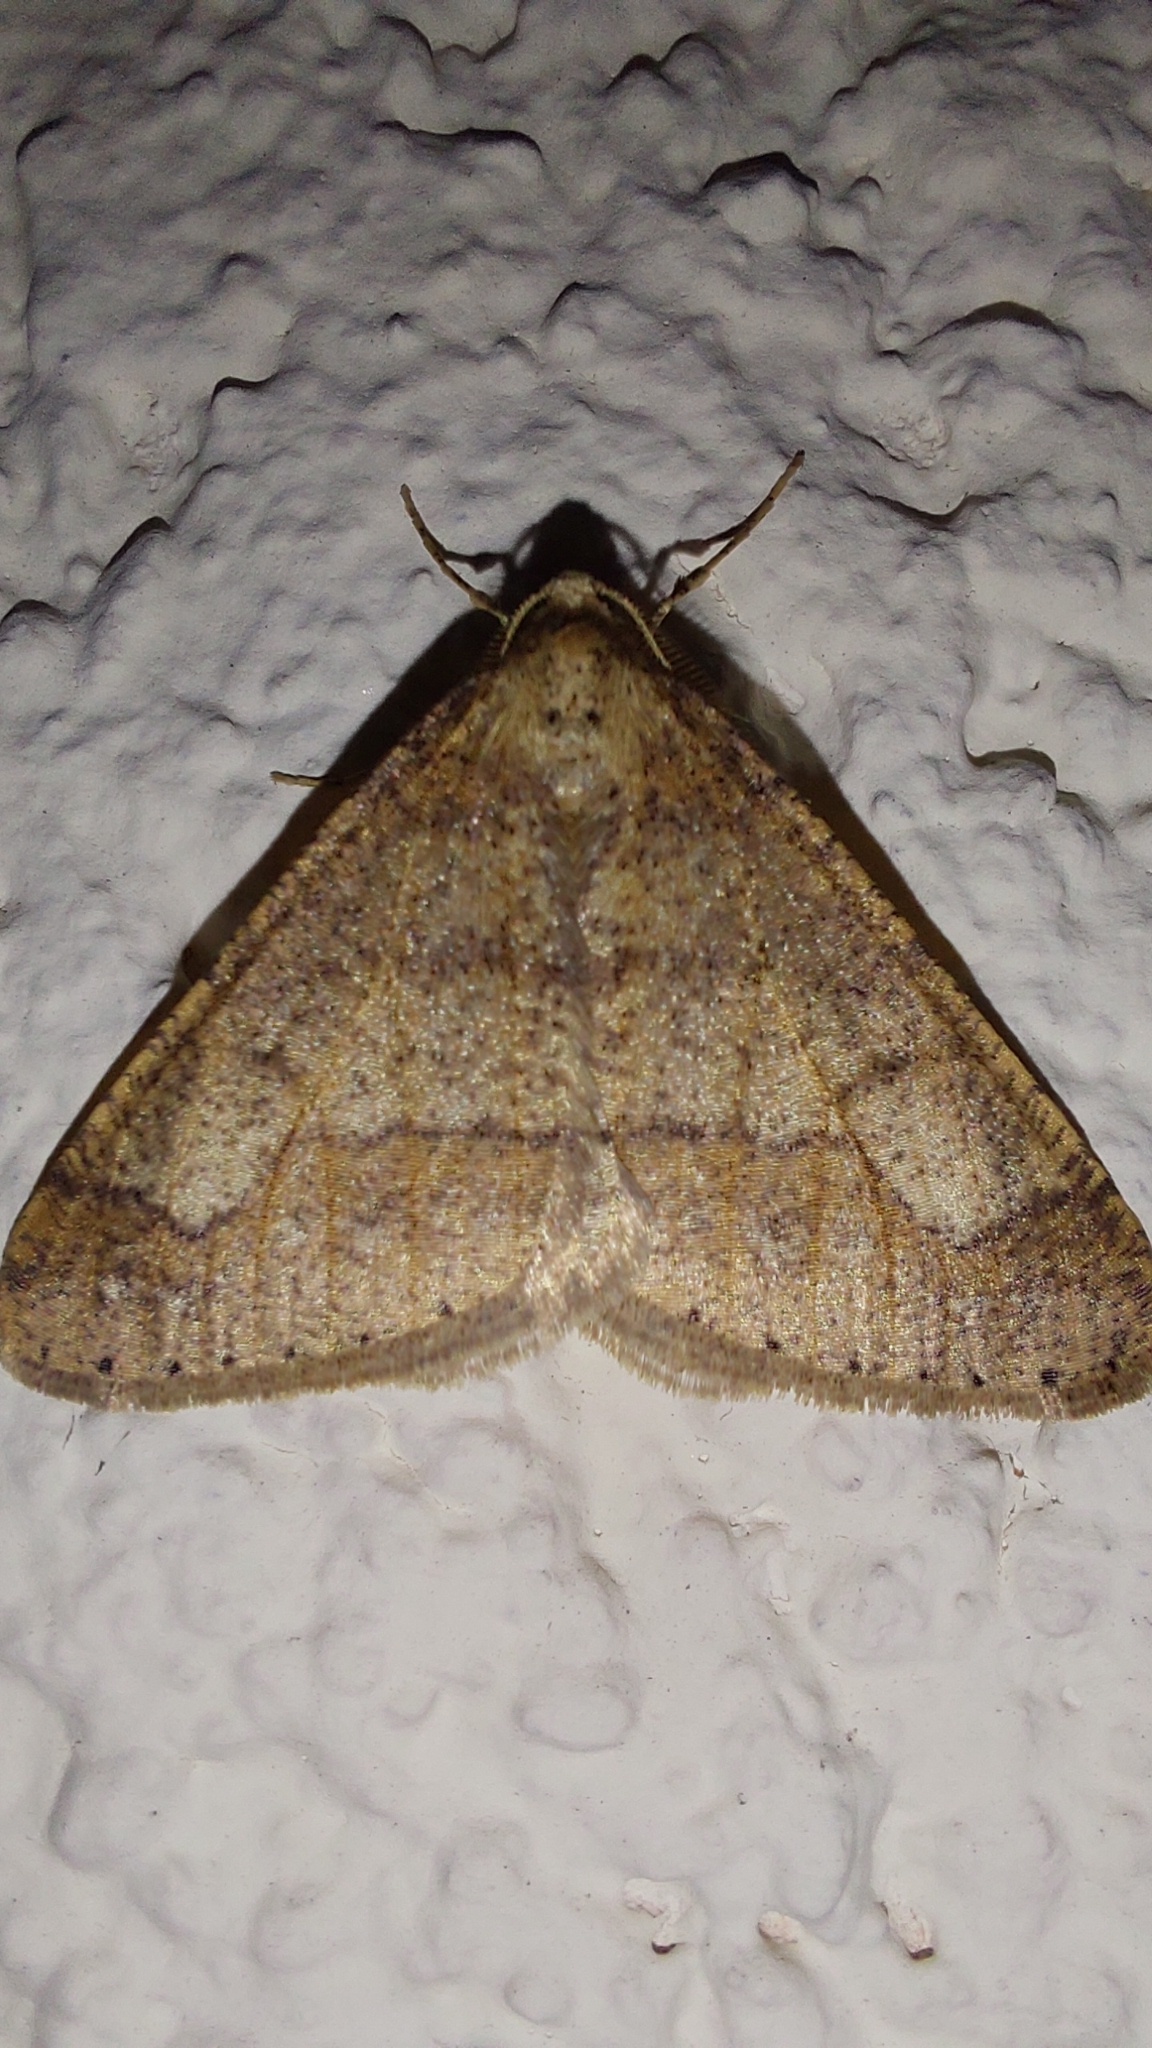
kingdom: Animalia
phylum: Arthropoda
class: Insecta
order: Lepidoptera
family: Geometridae
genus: Agriopis
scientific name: Agriopis marginaria
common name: Dotted border
